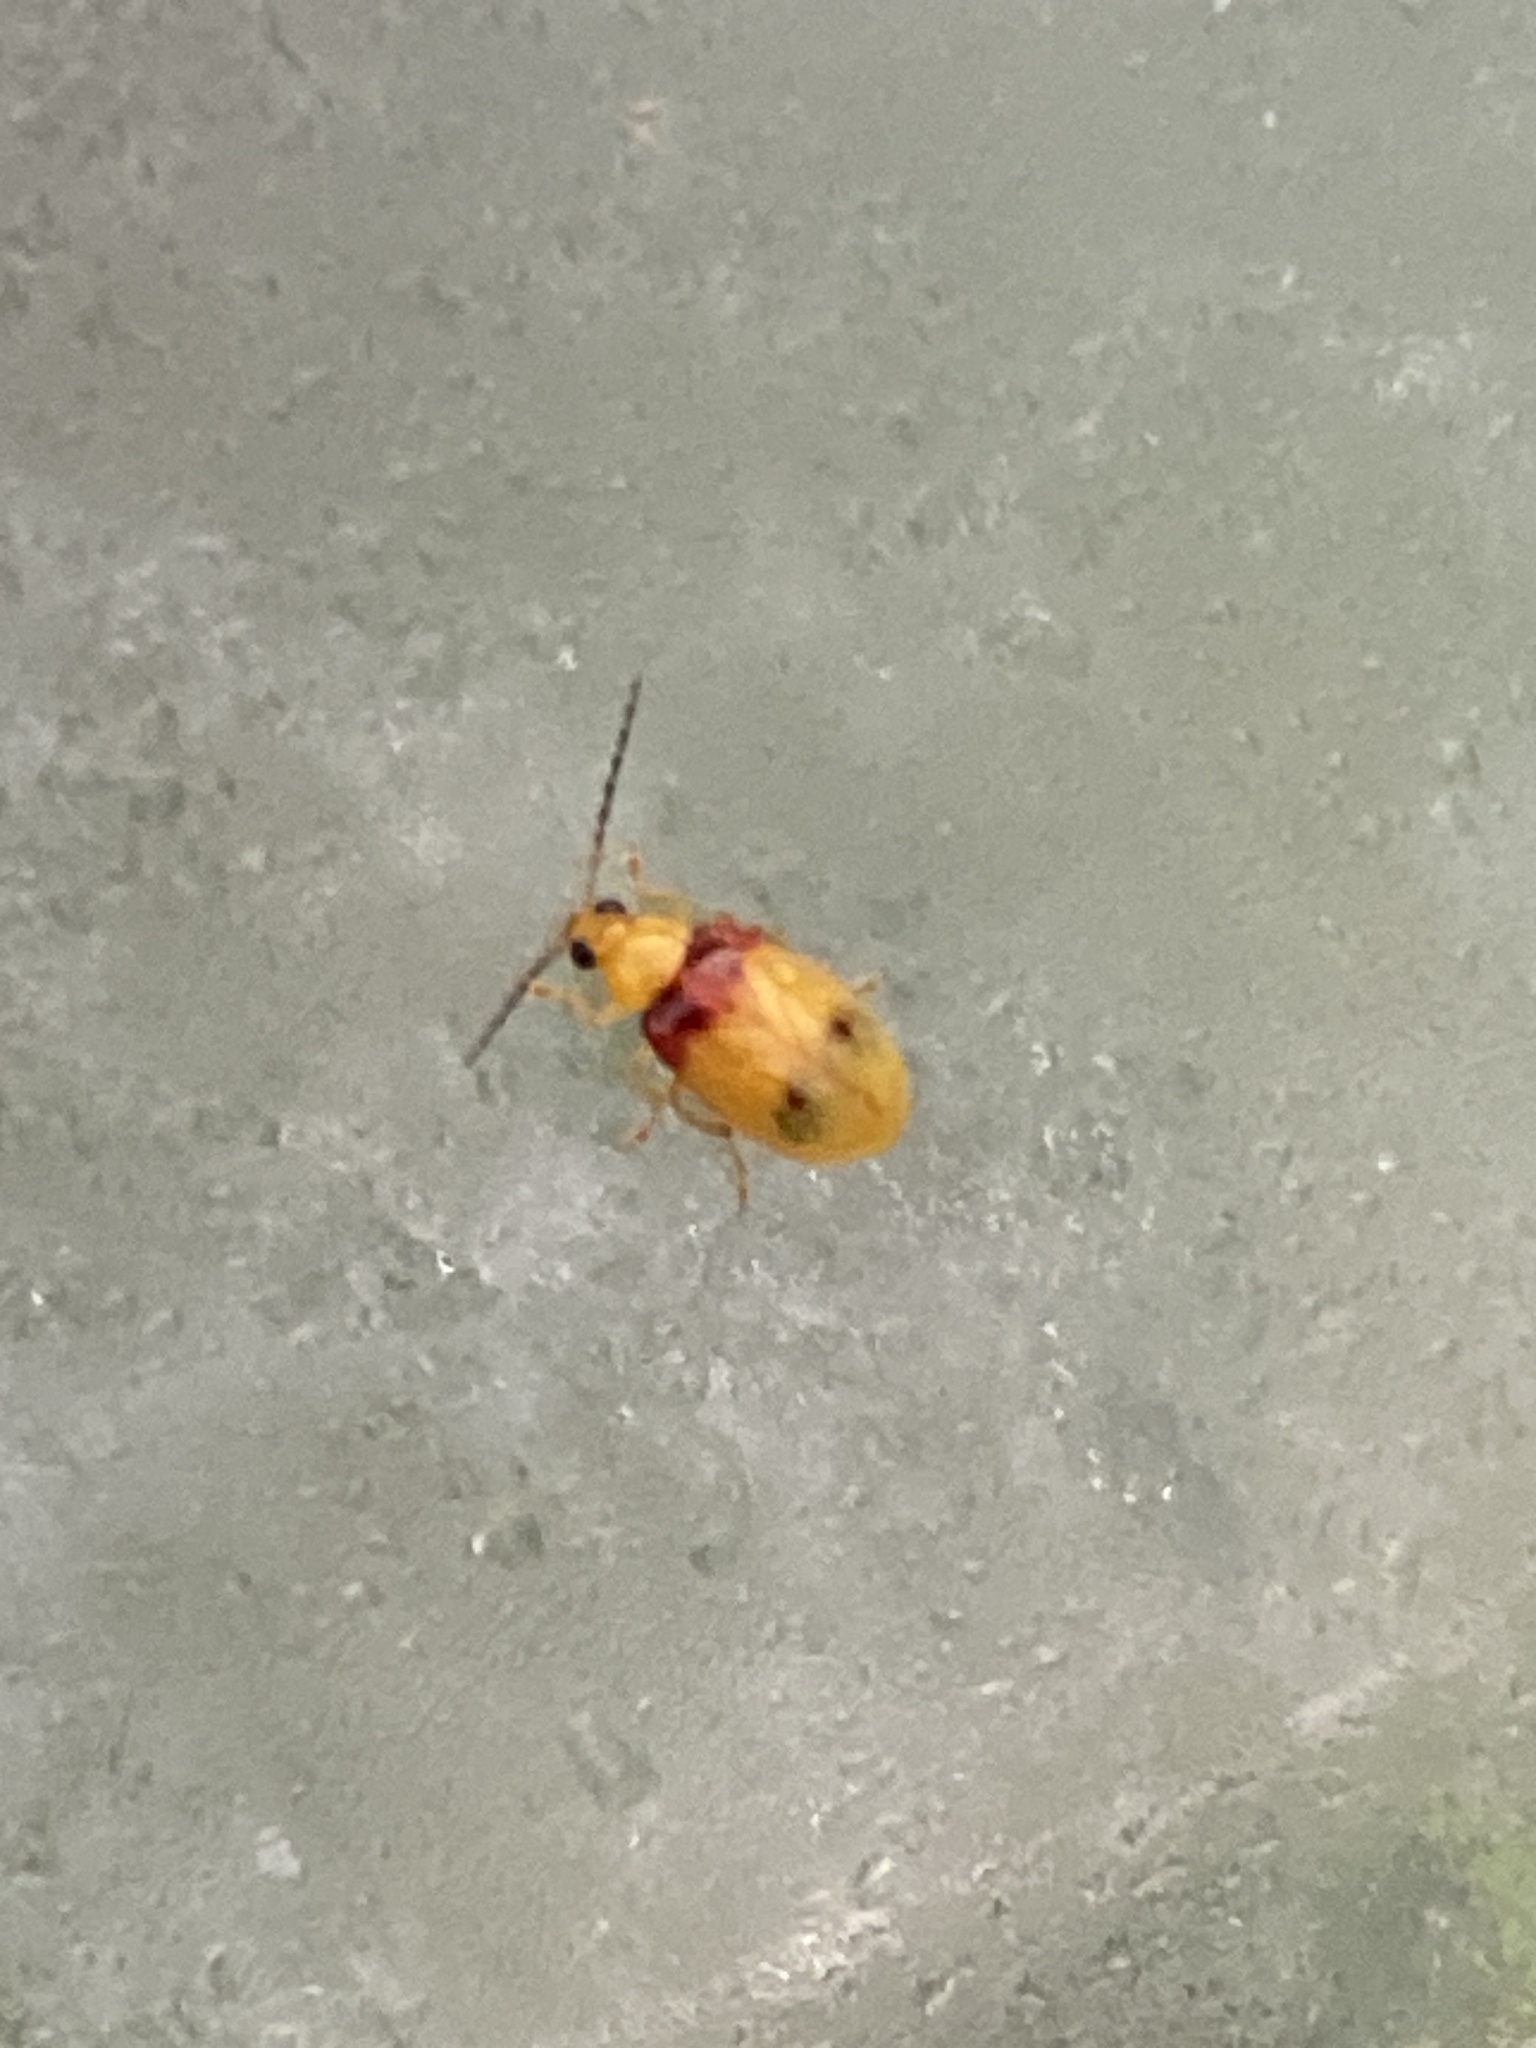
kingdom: Animalia
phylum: Arthropoda
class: Insecta
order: Coleoptera
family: Chrysomelidae
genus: Monolepta
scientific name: Monolepta
